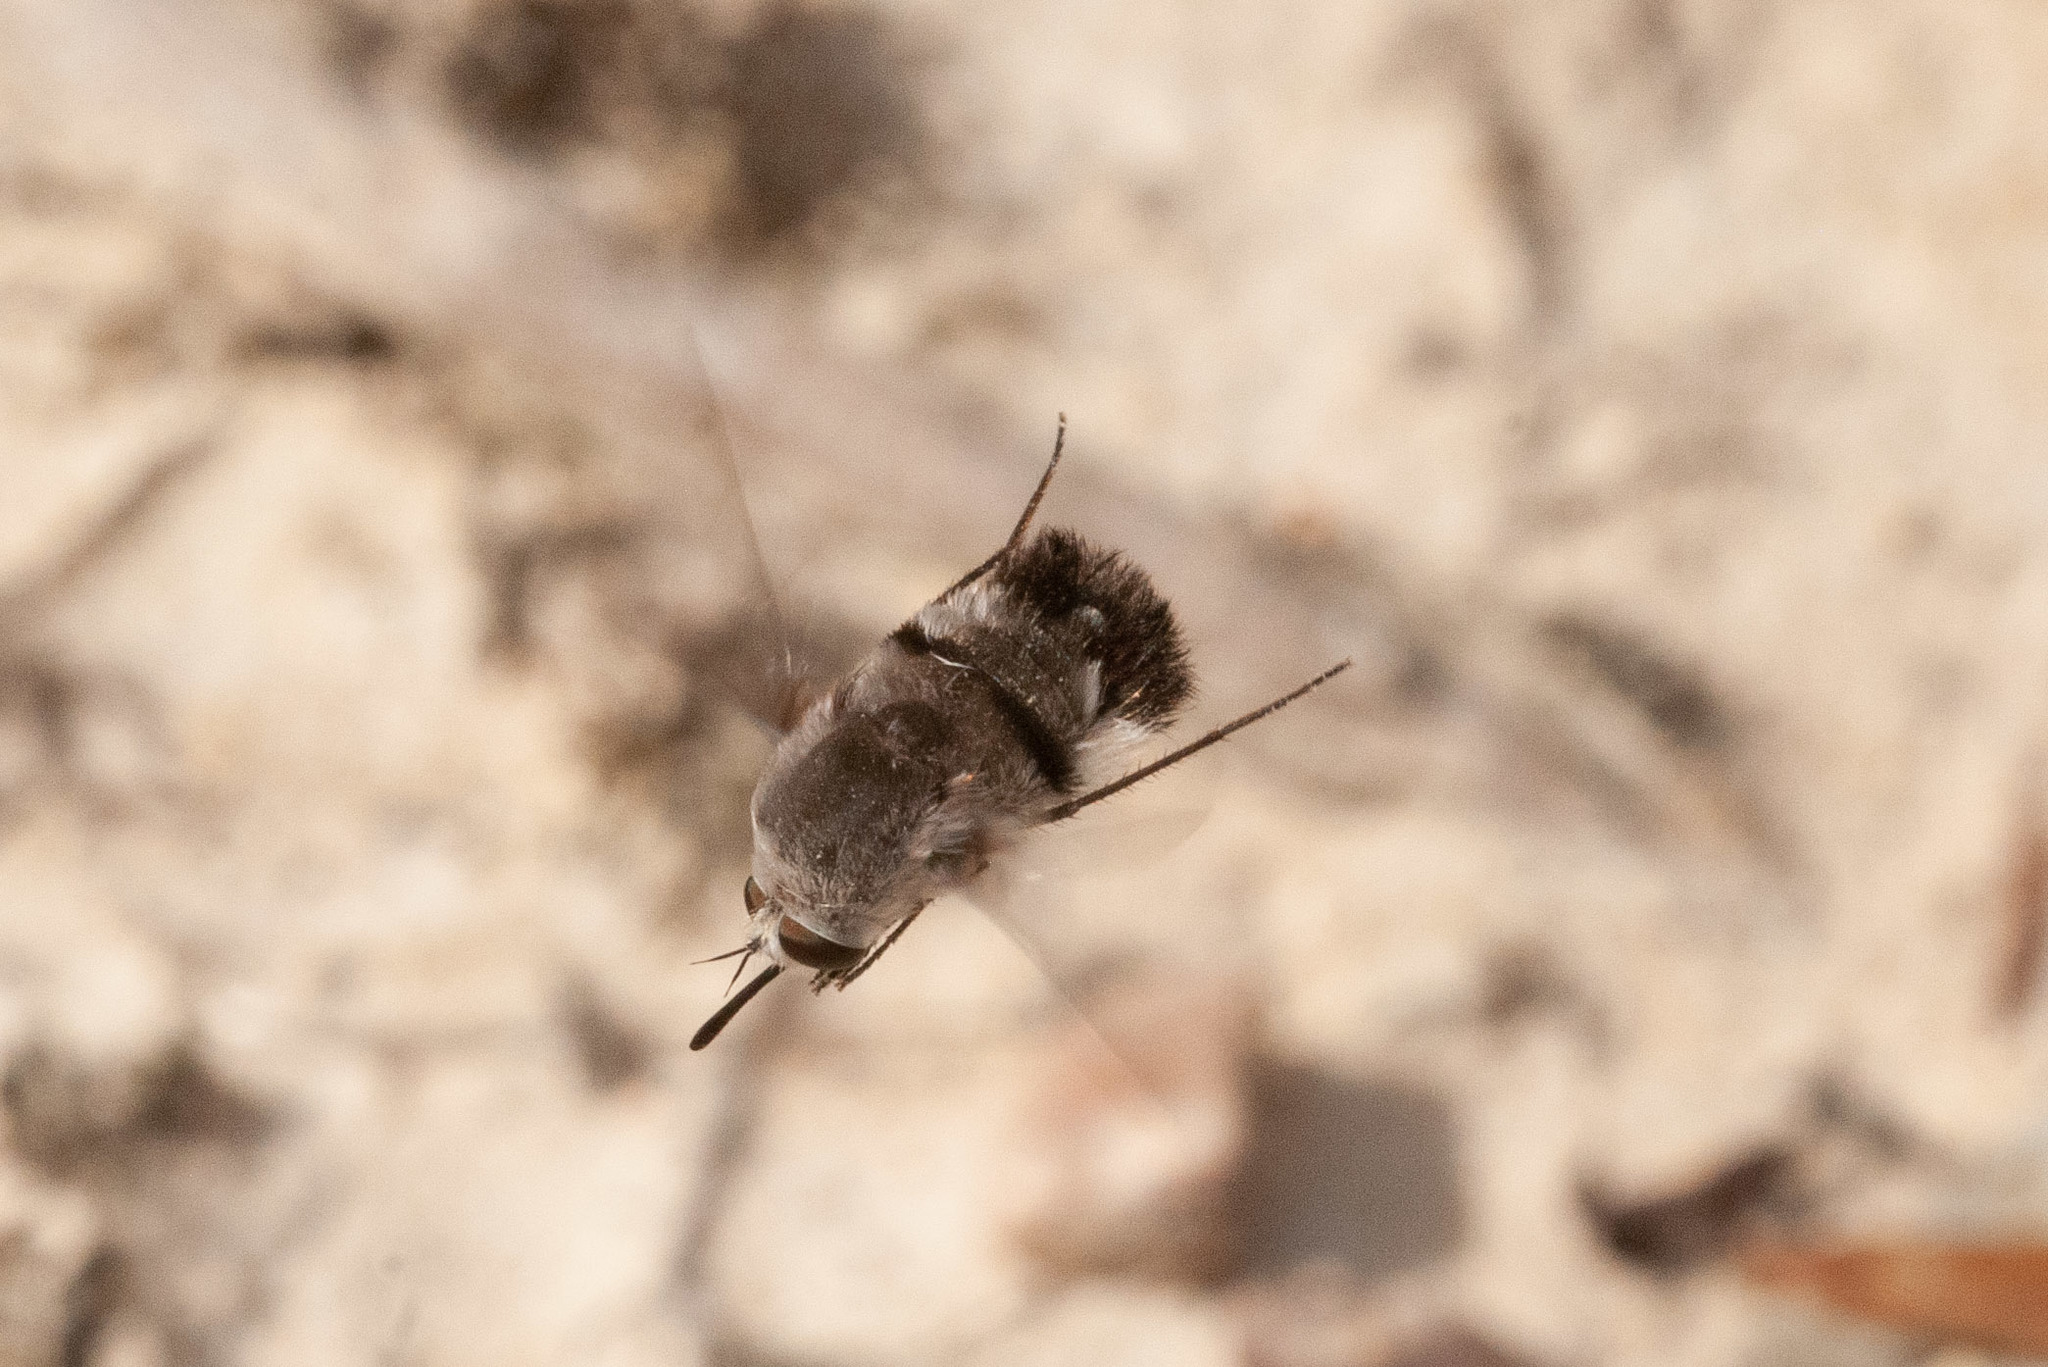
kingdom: Animalia
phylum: Arthropoda
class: Insecta
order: Diptera
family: Bombyliidae
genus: Meomyia
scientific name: Meomyia
